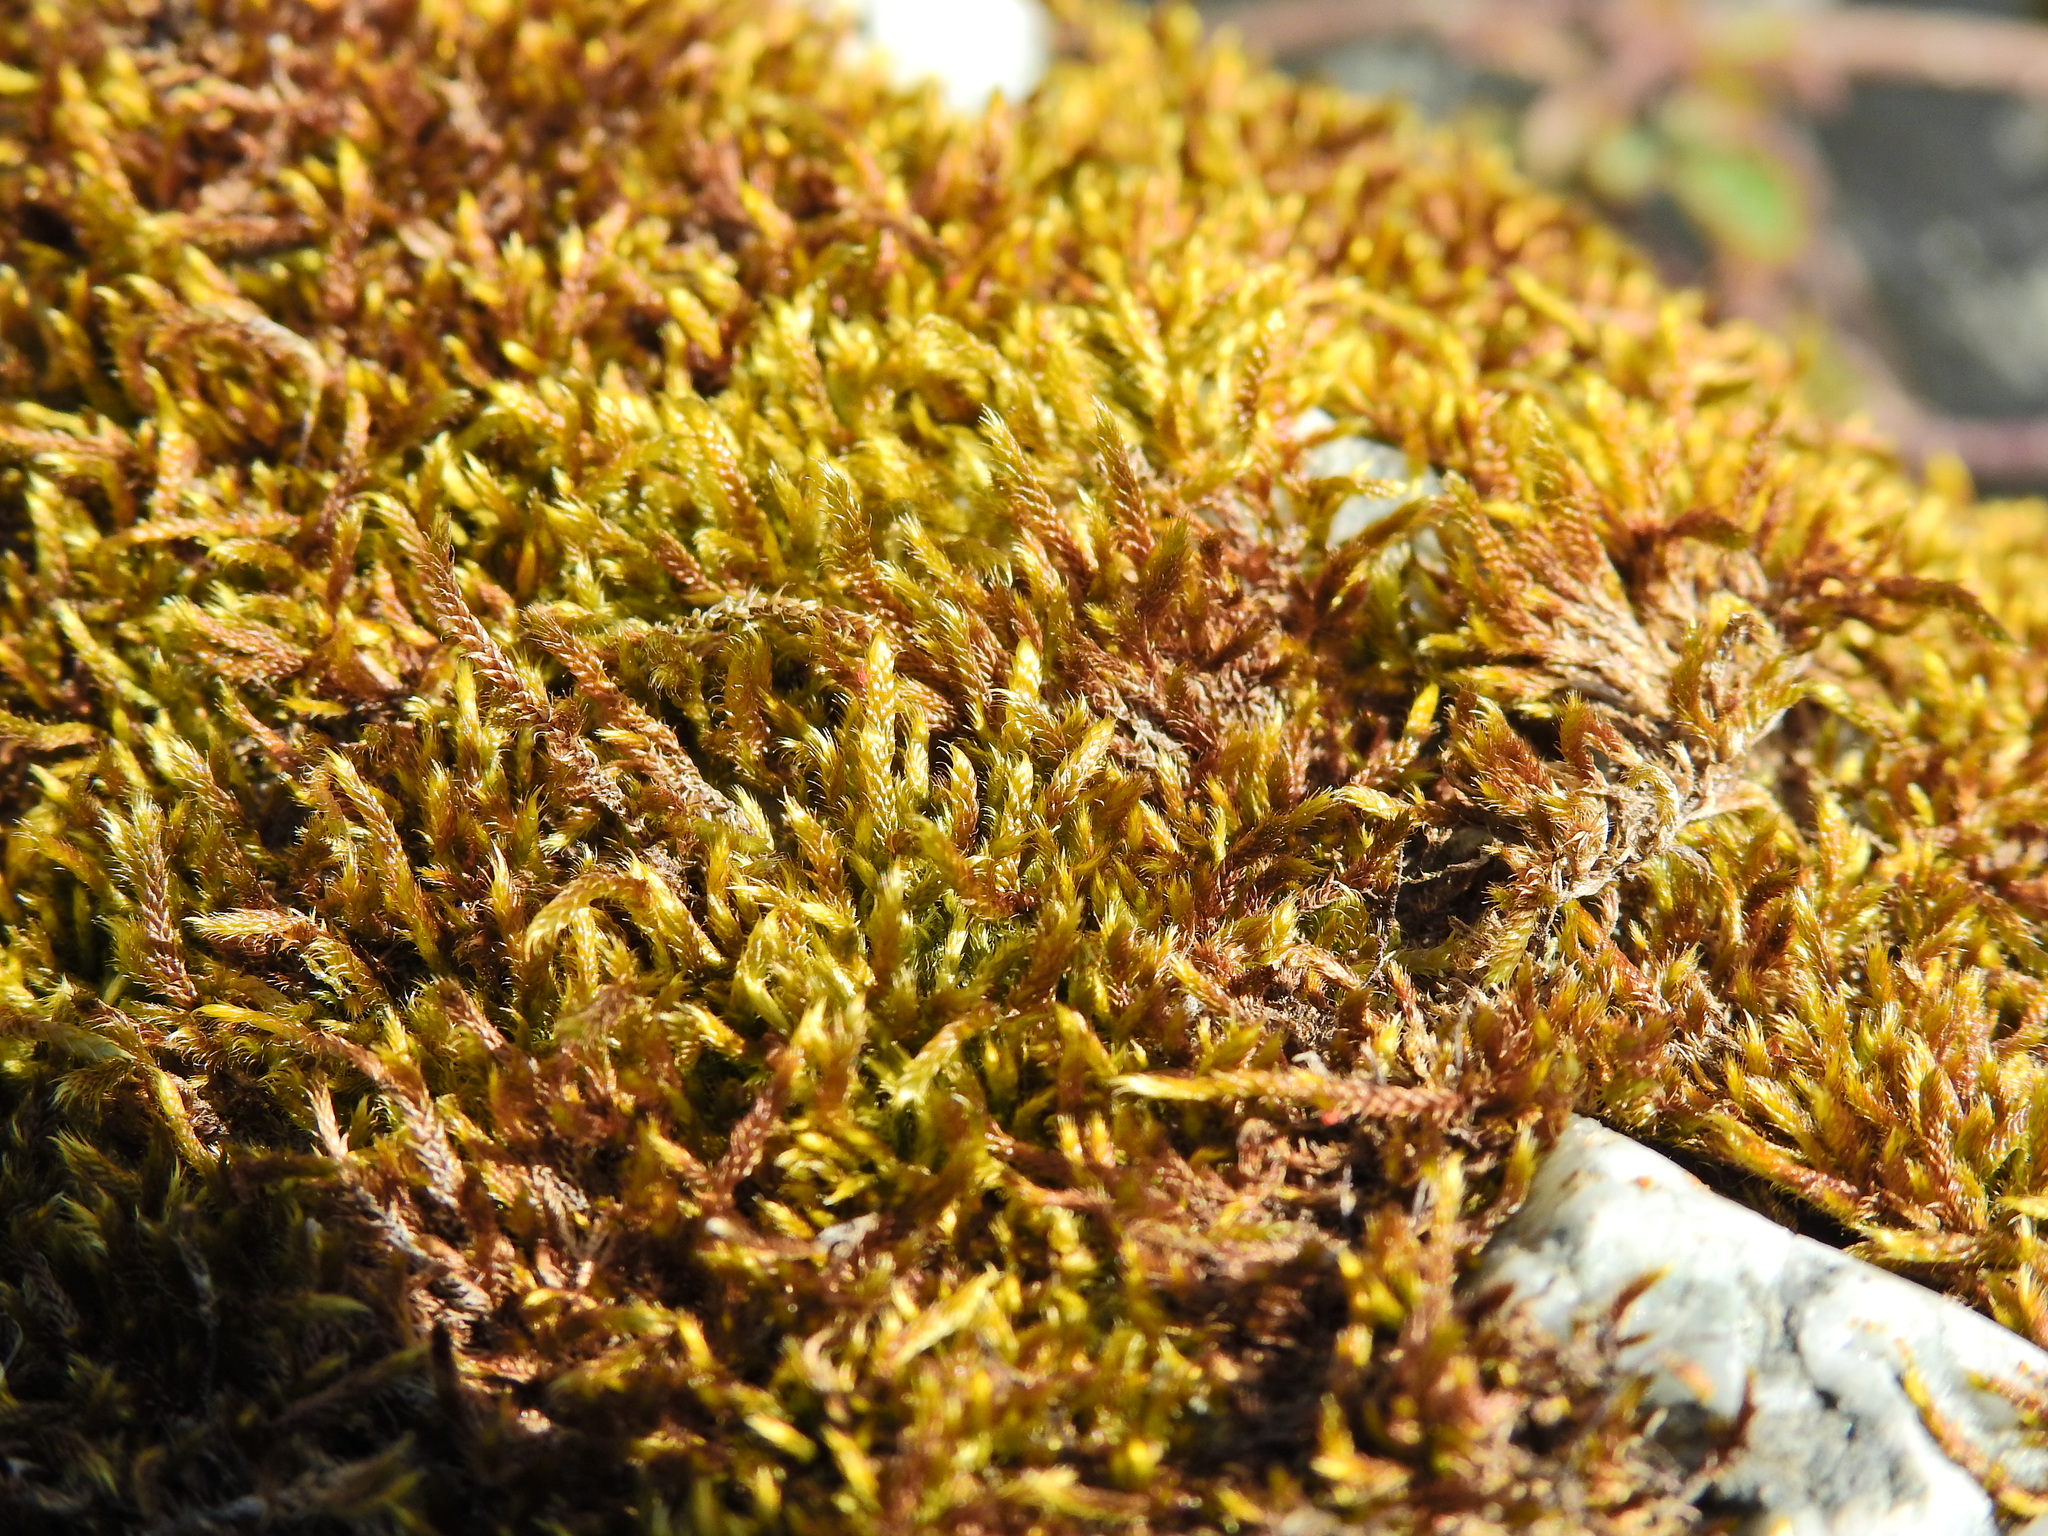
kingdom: Plantae
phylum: Bryophyta
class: Bryopsida
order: Hypnales
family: Hypnaceae
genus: Hypnum
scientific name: Hypnum cupressiforme
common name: Cypress-leaved plait-moss
